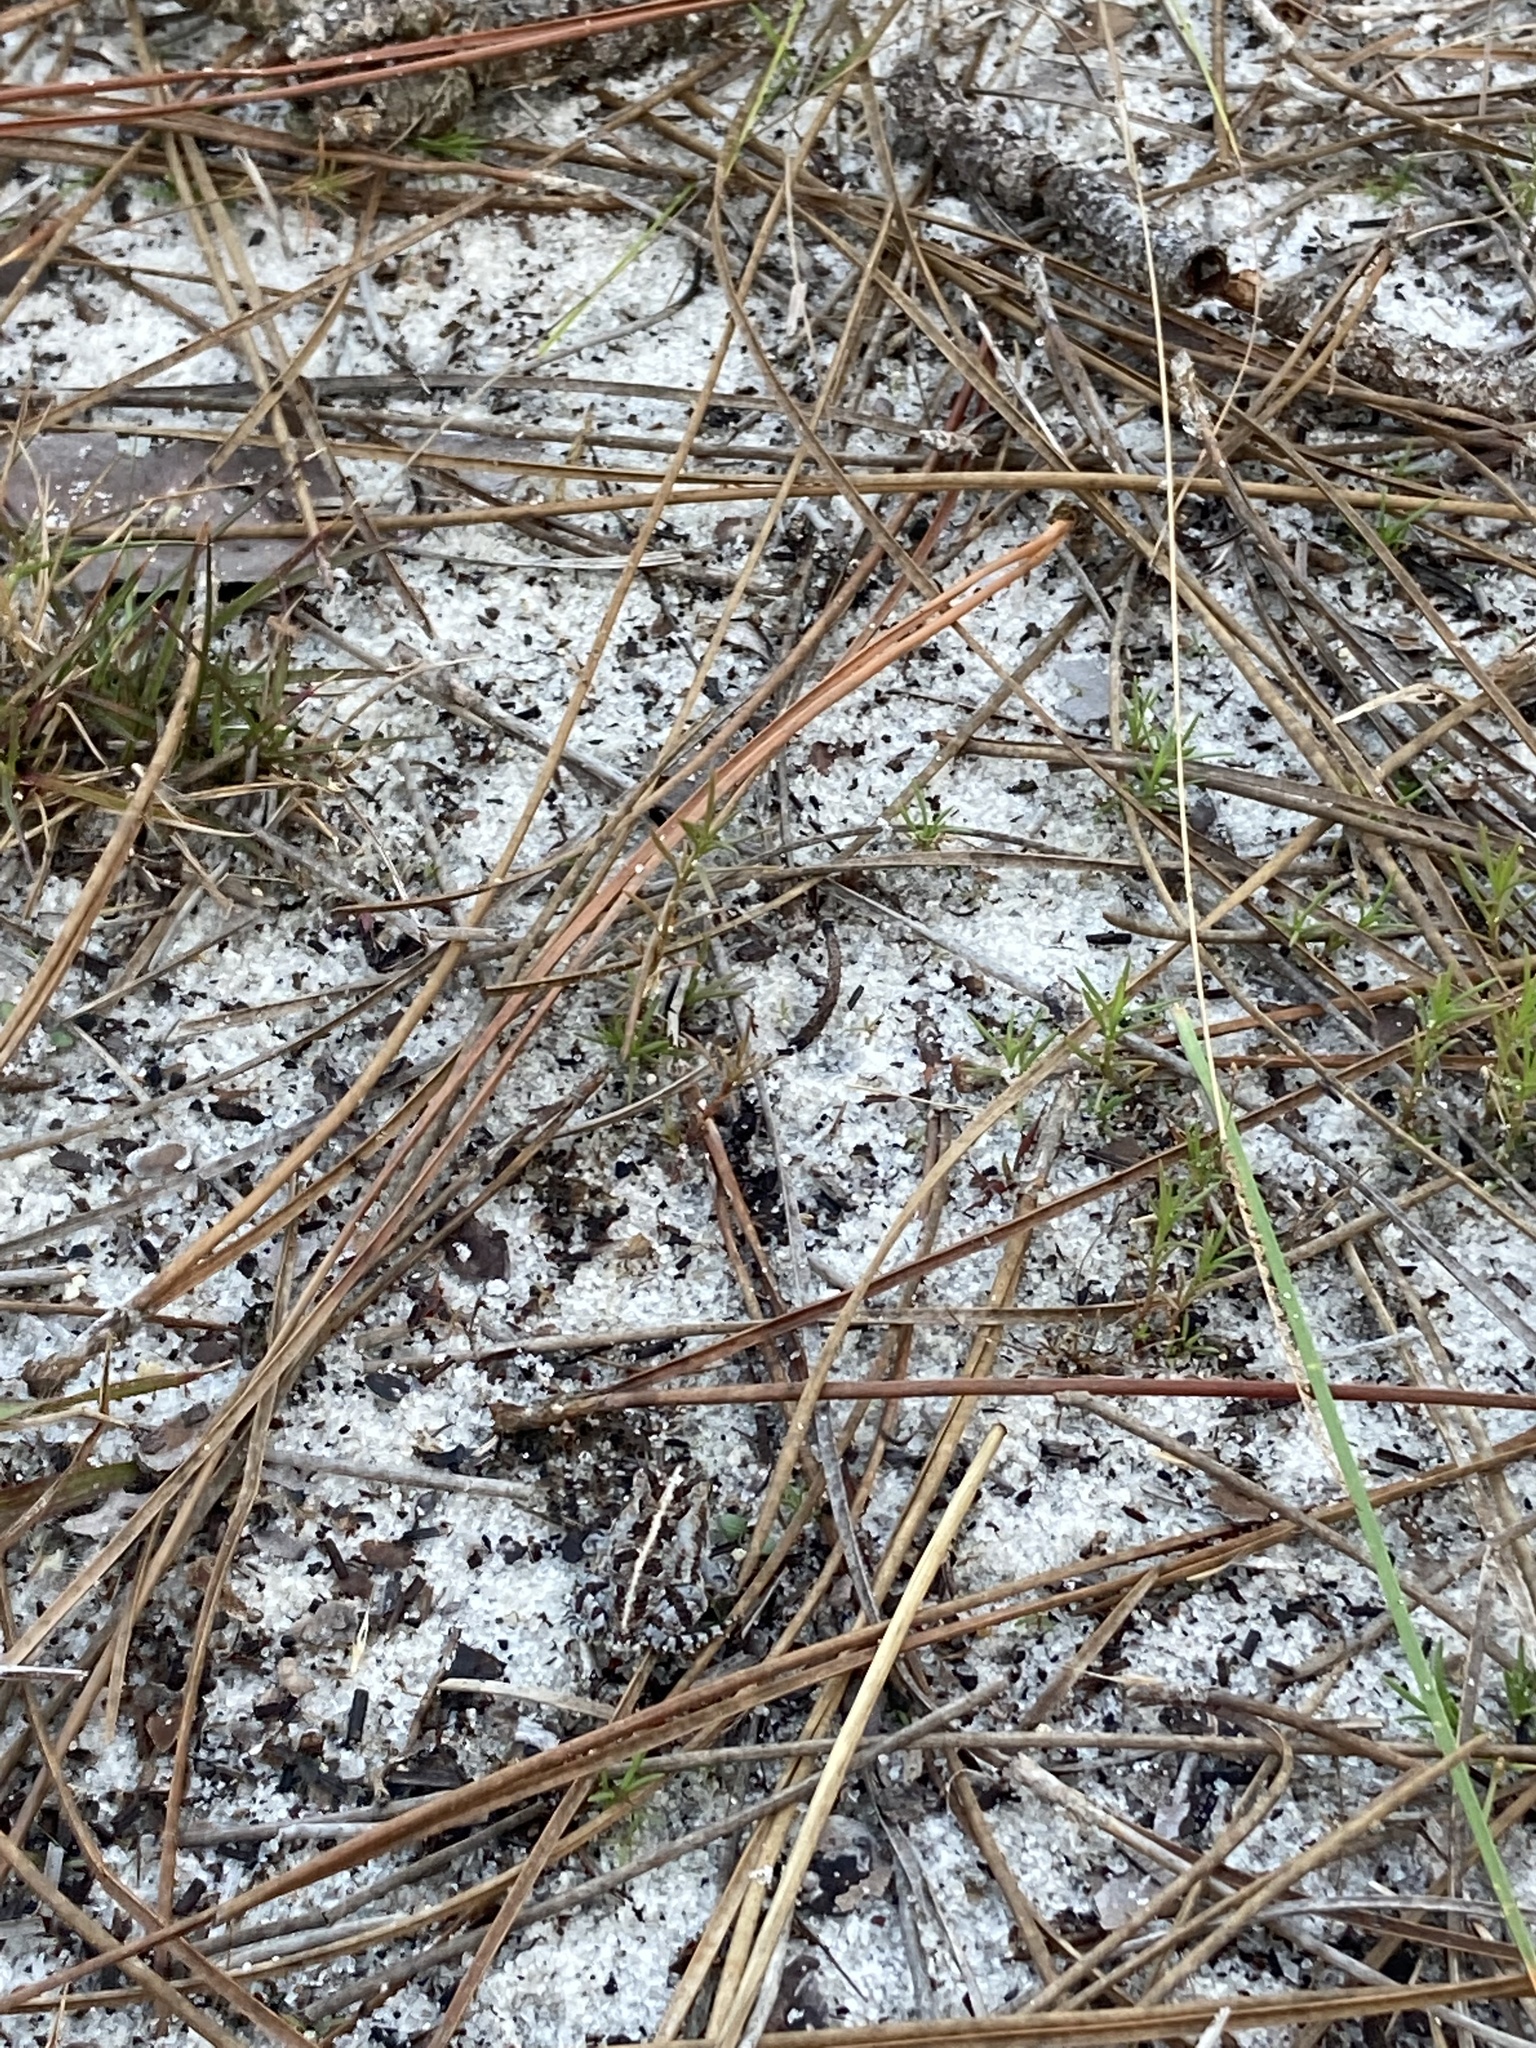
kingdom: Animalia
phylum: Chordata
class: Amphibia
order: Anura
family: Bufonidae
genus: Anaxyrus
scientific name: Anaxyrus quercicus
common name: Oak toad
